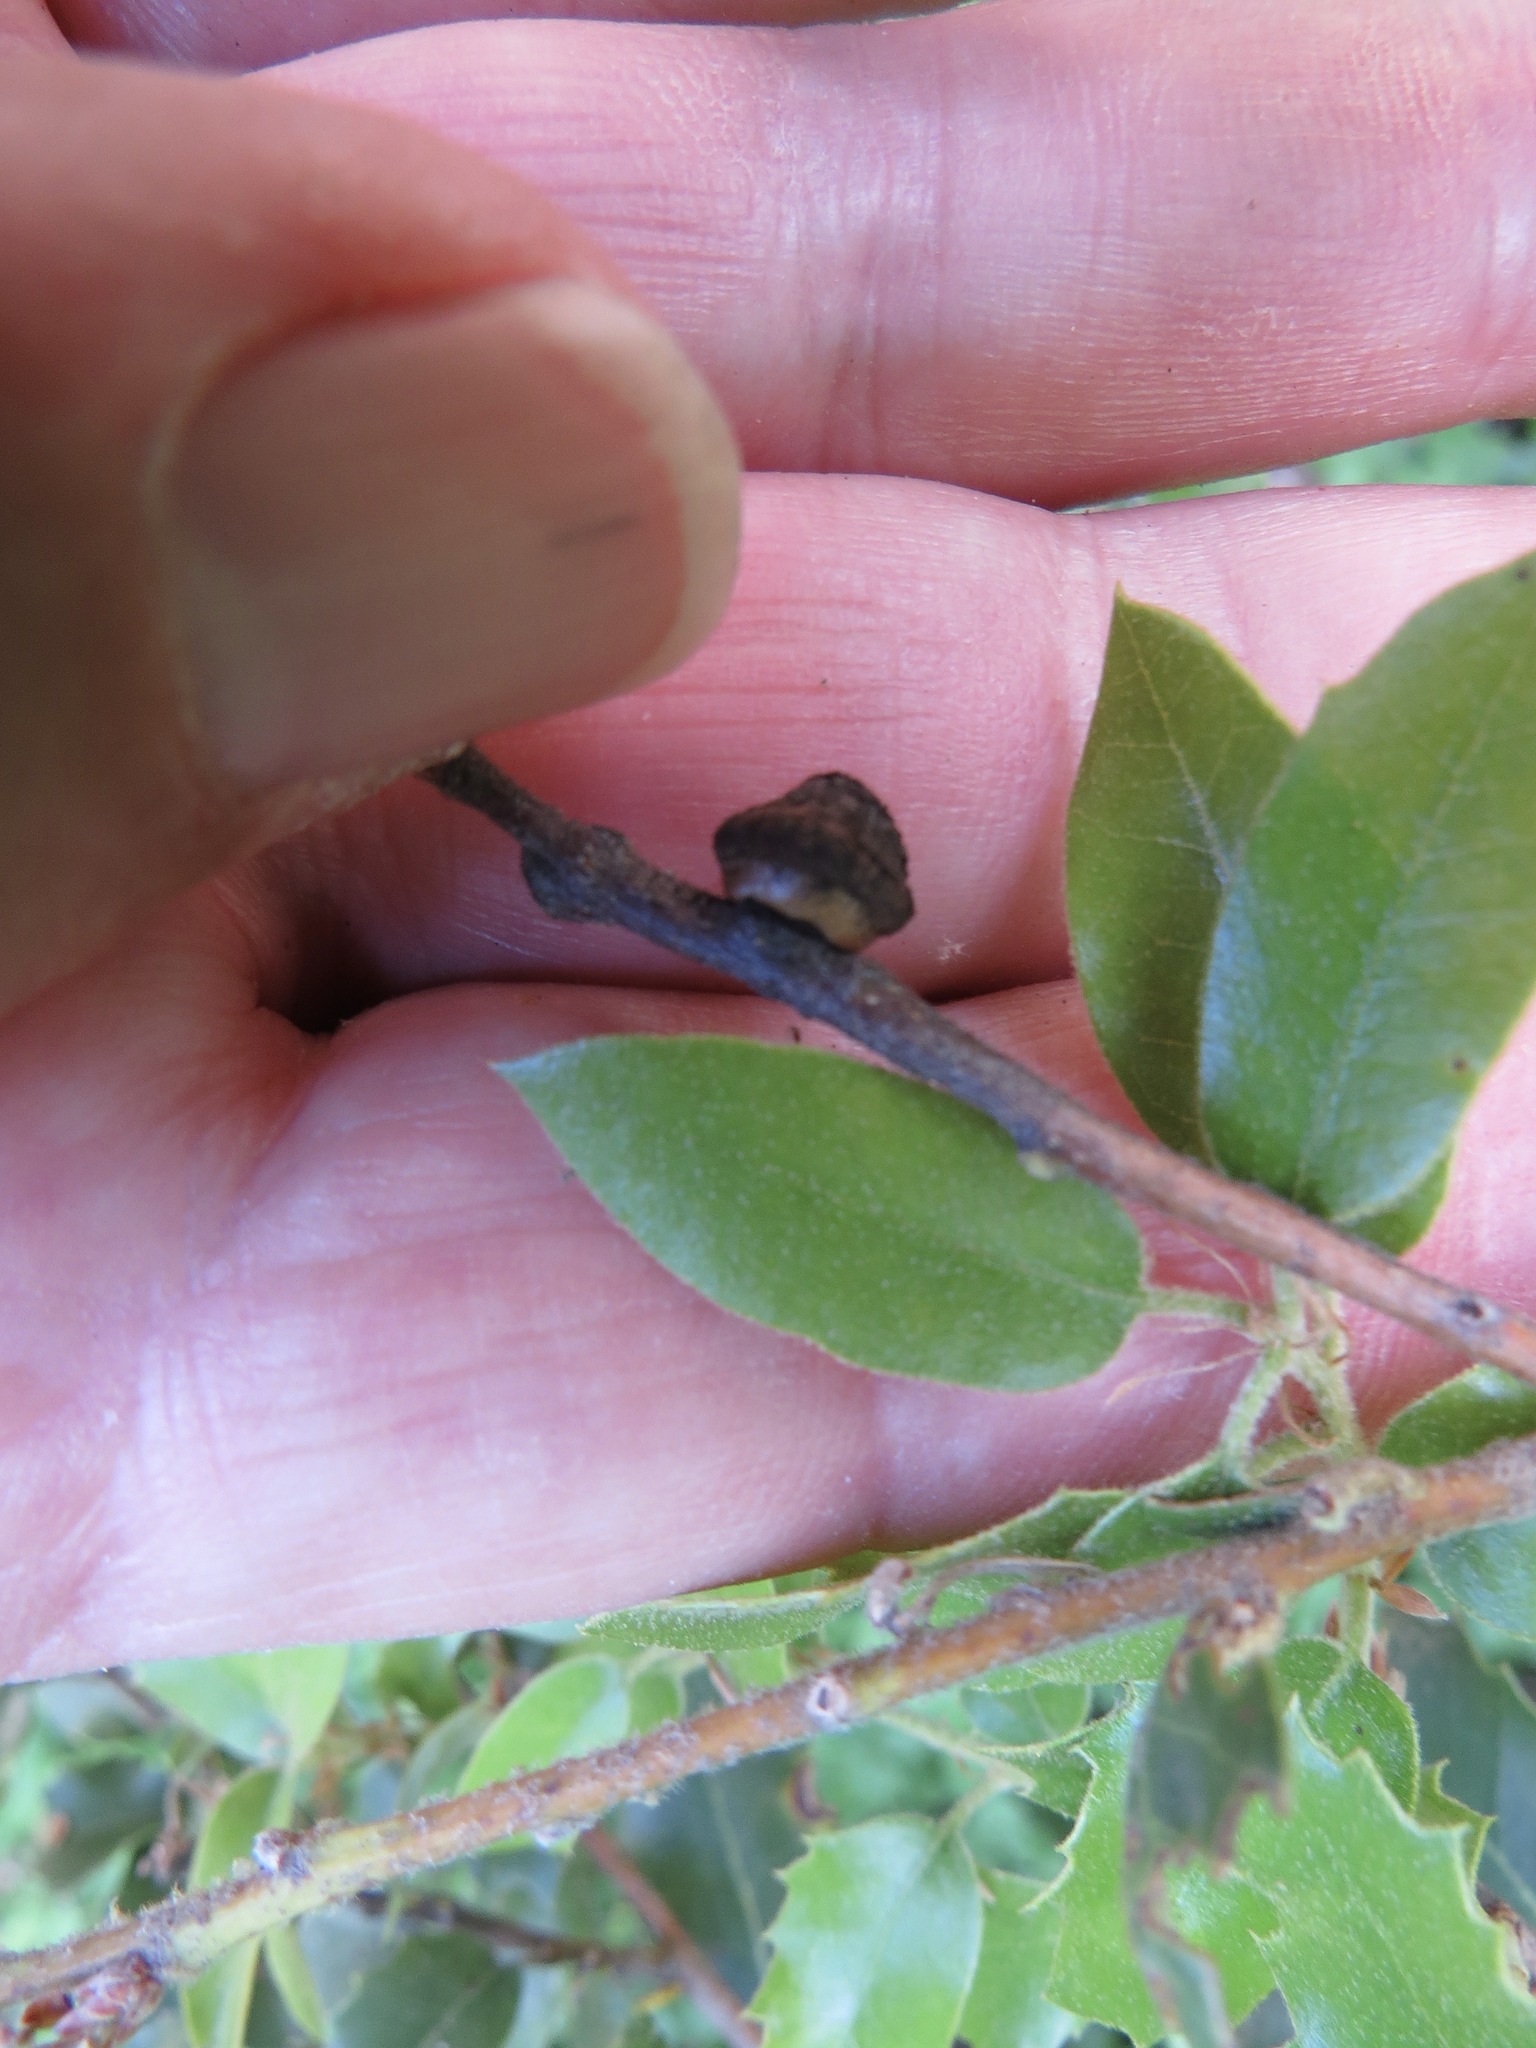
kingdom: Animalia
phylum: Arthropoda
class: Insecta
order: Hymenoptera
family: Cynipidae
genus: Disholandricus
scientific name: Disholandricus
